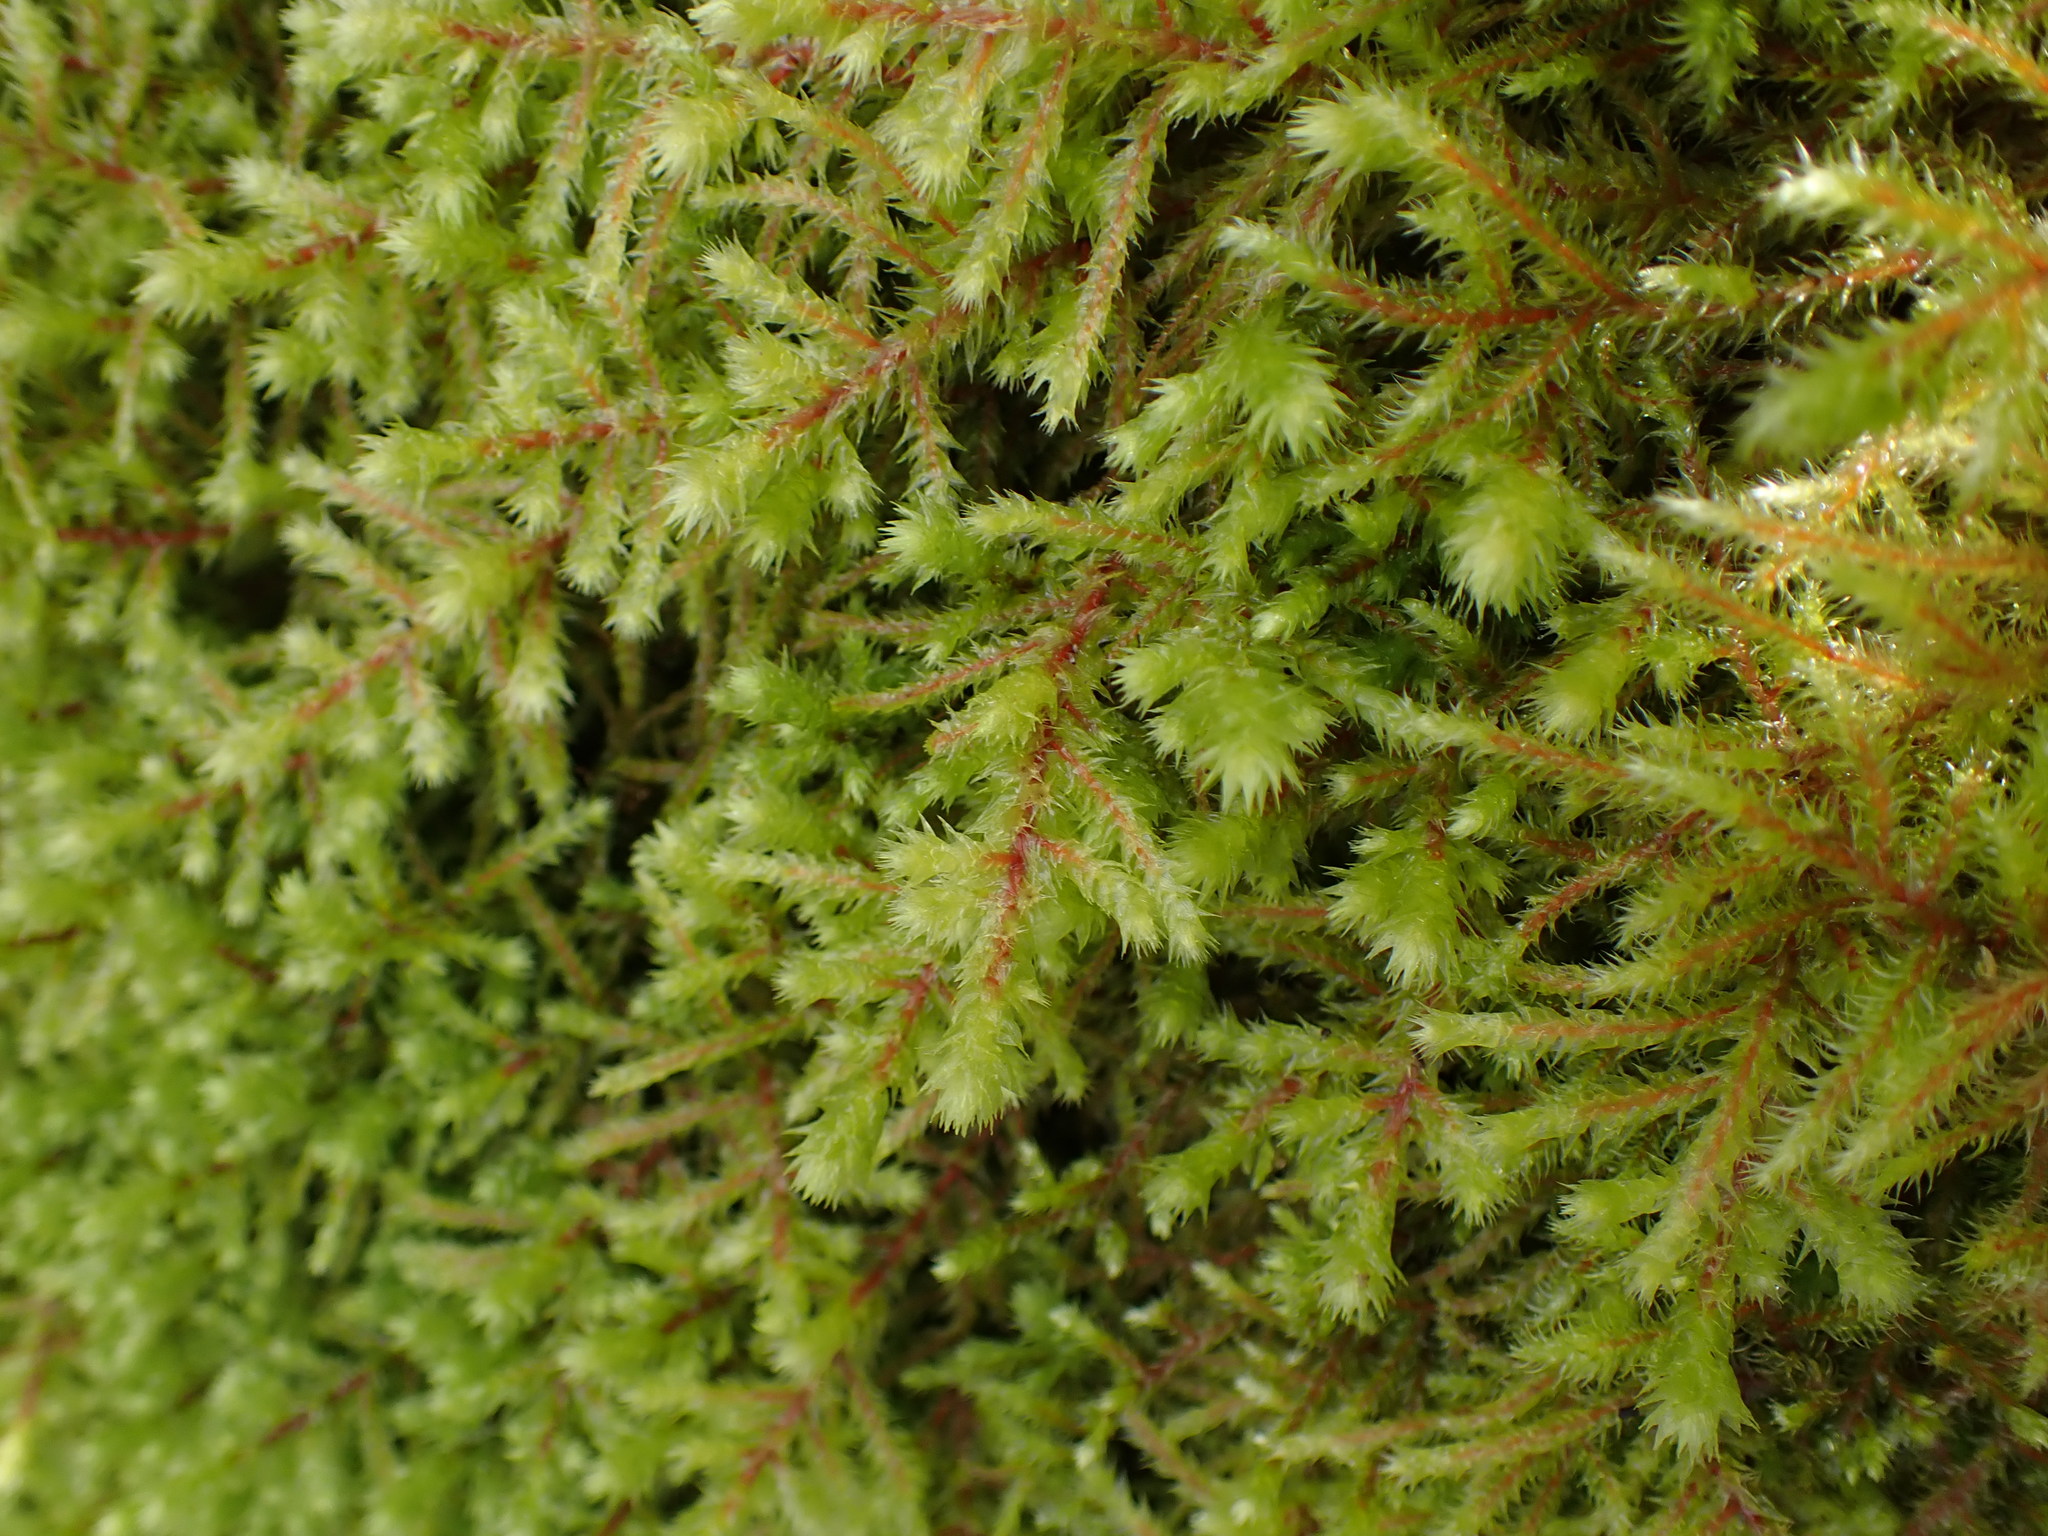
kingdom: Plantae
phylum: Bryophyta
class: Bryopsida
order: Hypnales
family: Hylocomiaceae
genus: Hylocomiadelphus
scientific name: Hylocomiadelphus triquetrus
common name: Rough goose neck moss
